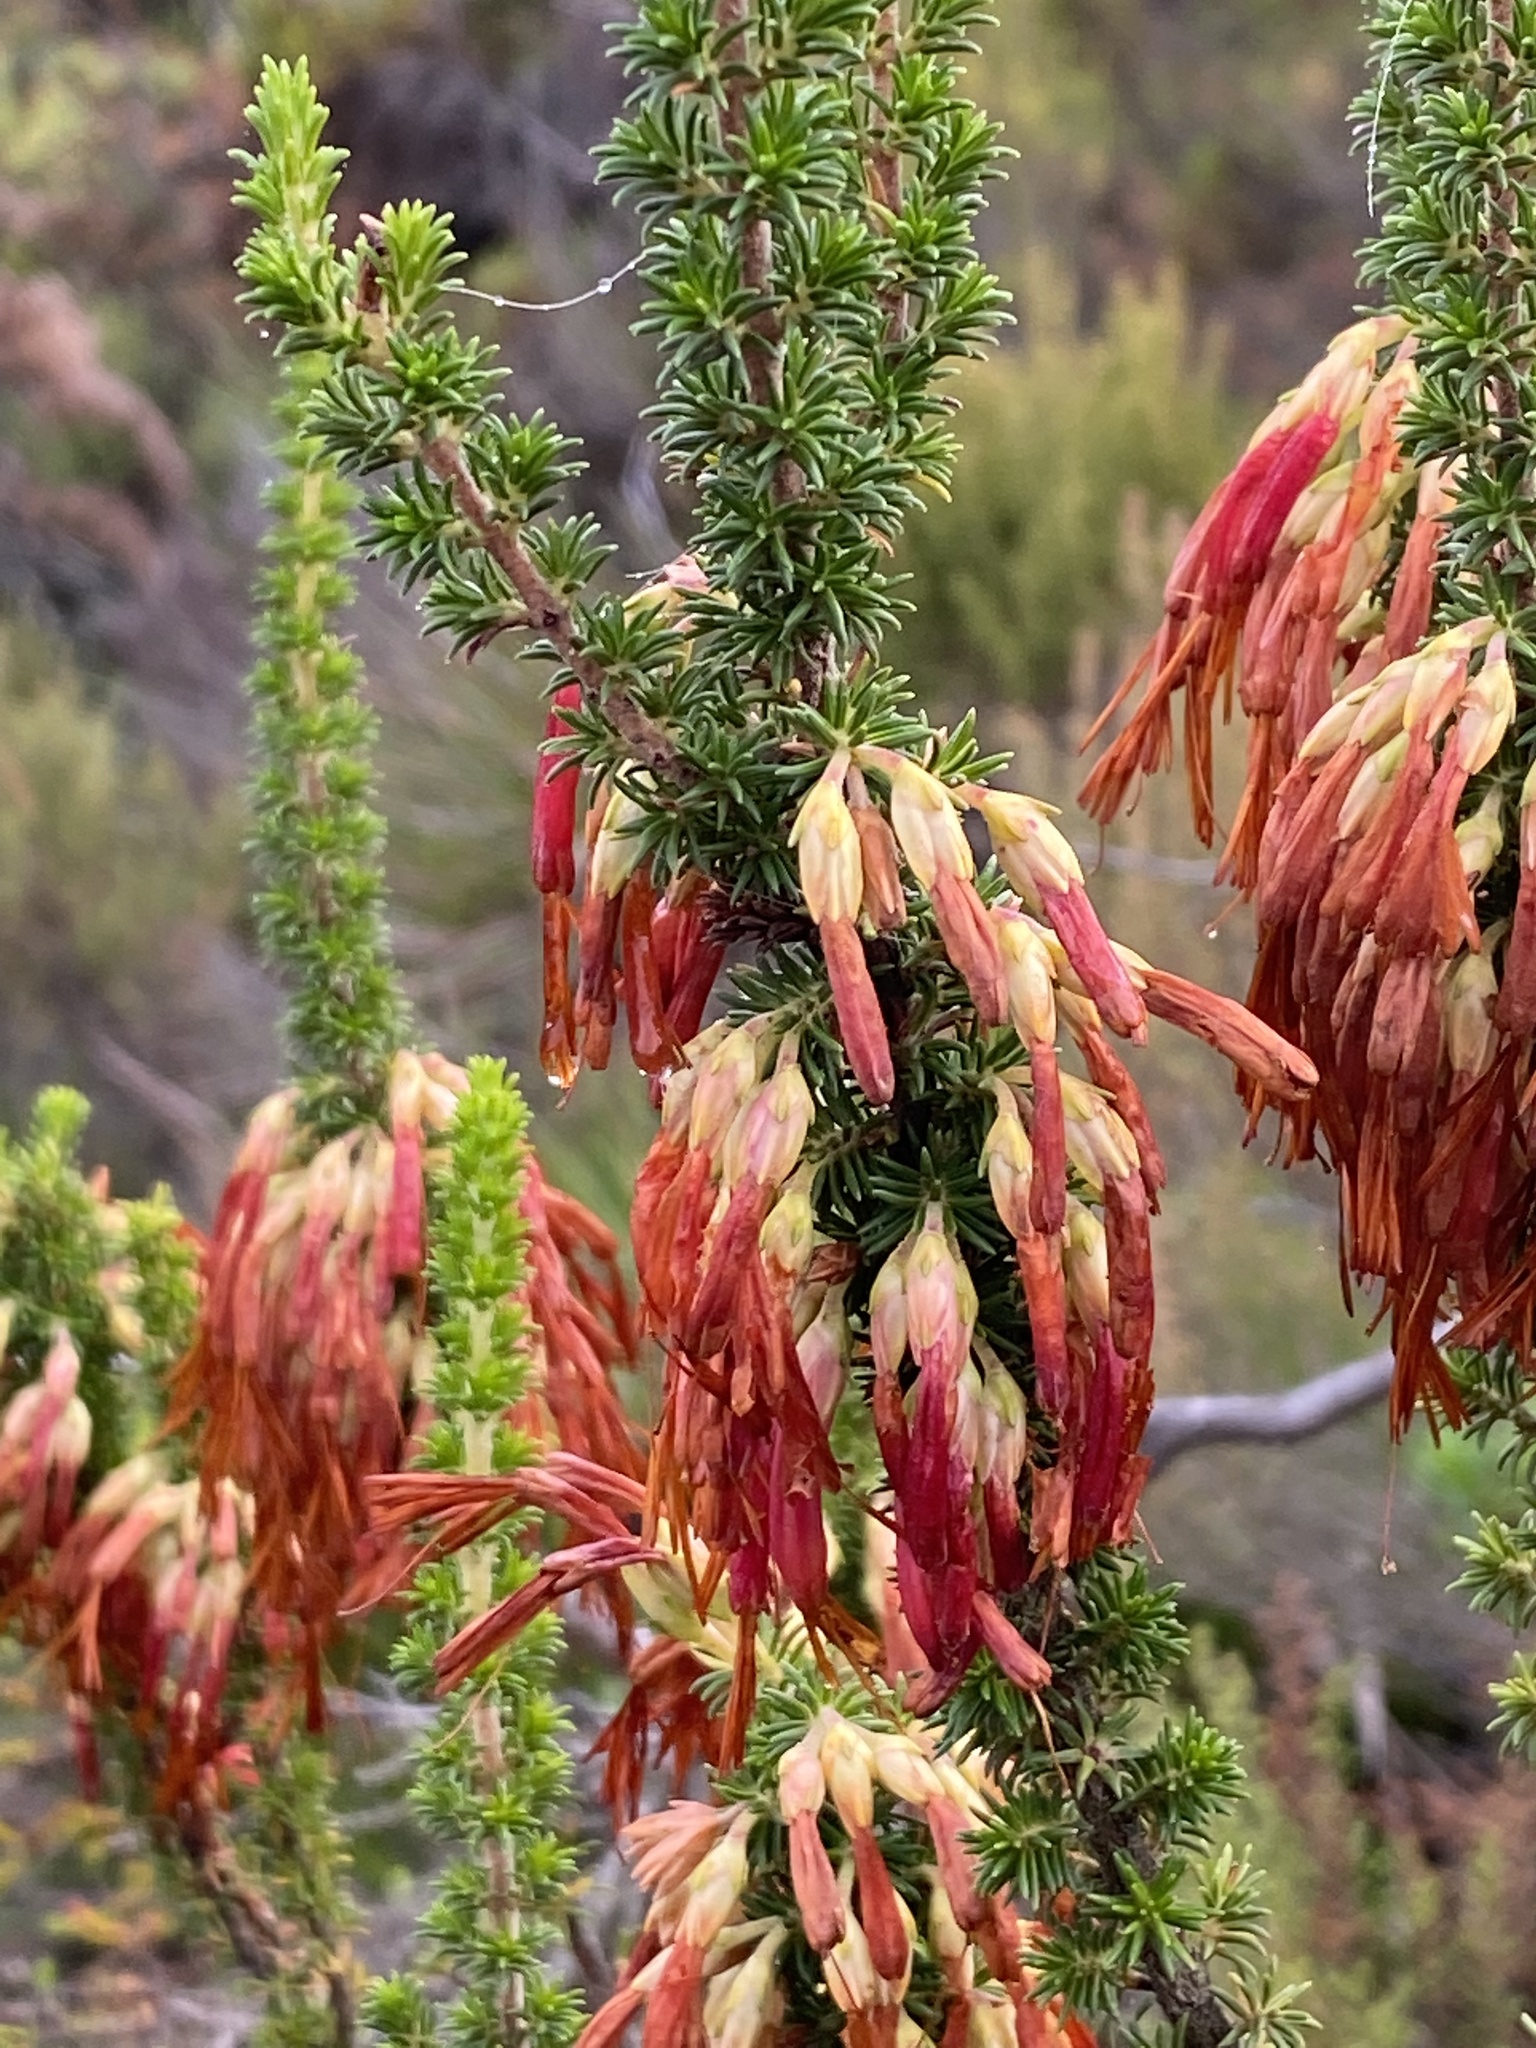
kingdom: Plantae
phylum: Tracheophyta
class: Magnoliopsida
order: Ericales
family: Ericaceae
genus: Erica
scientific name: Erica coccinea
